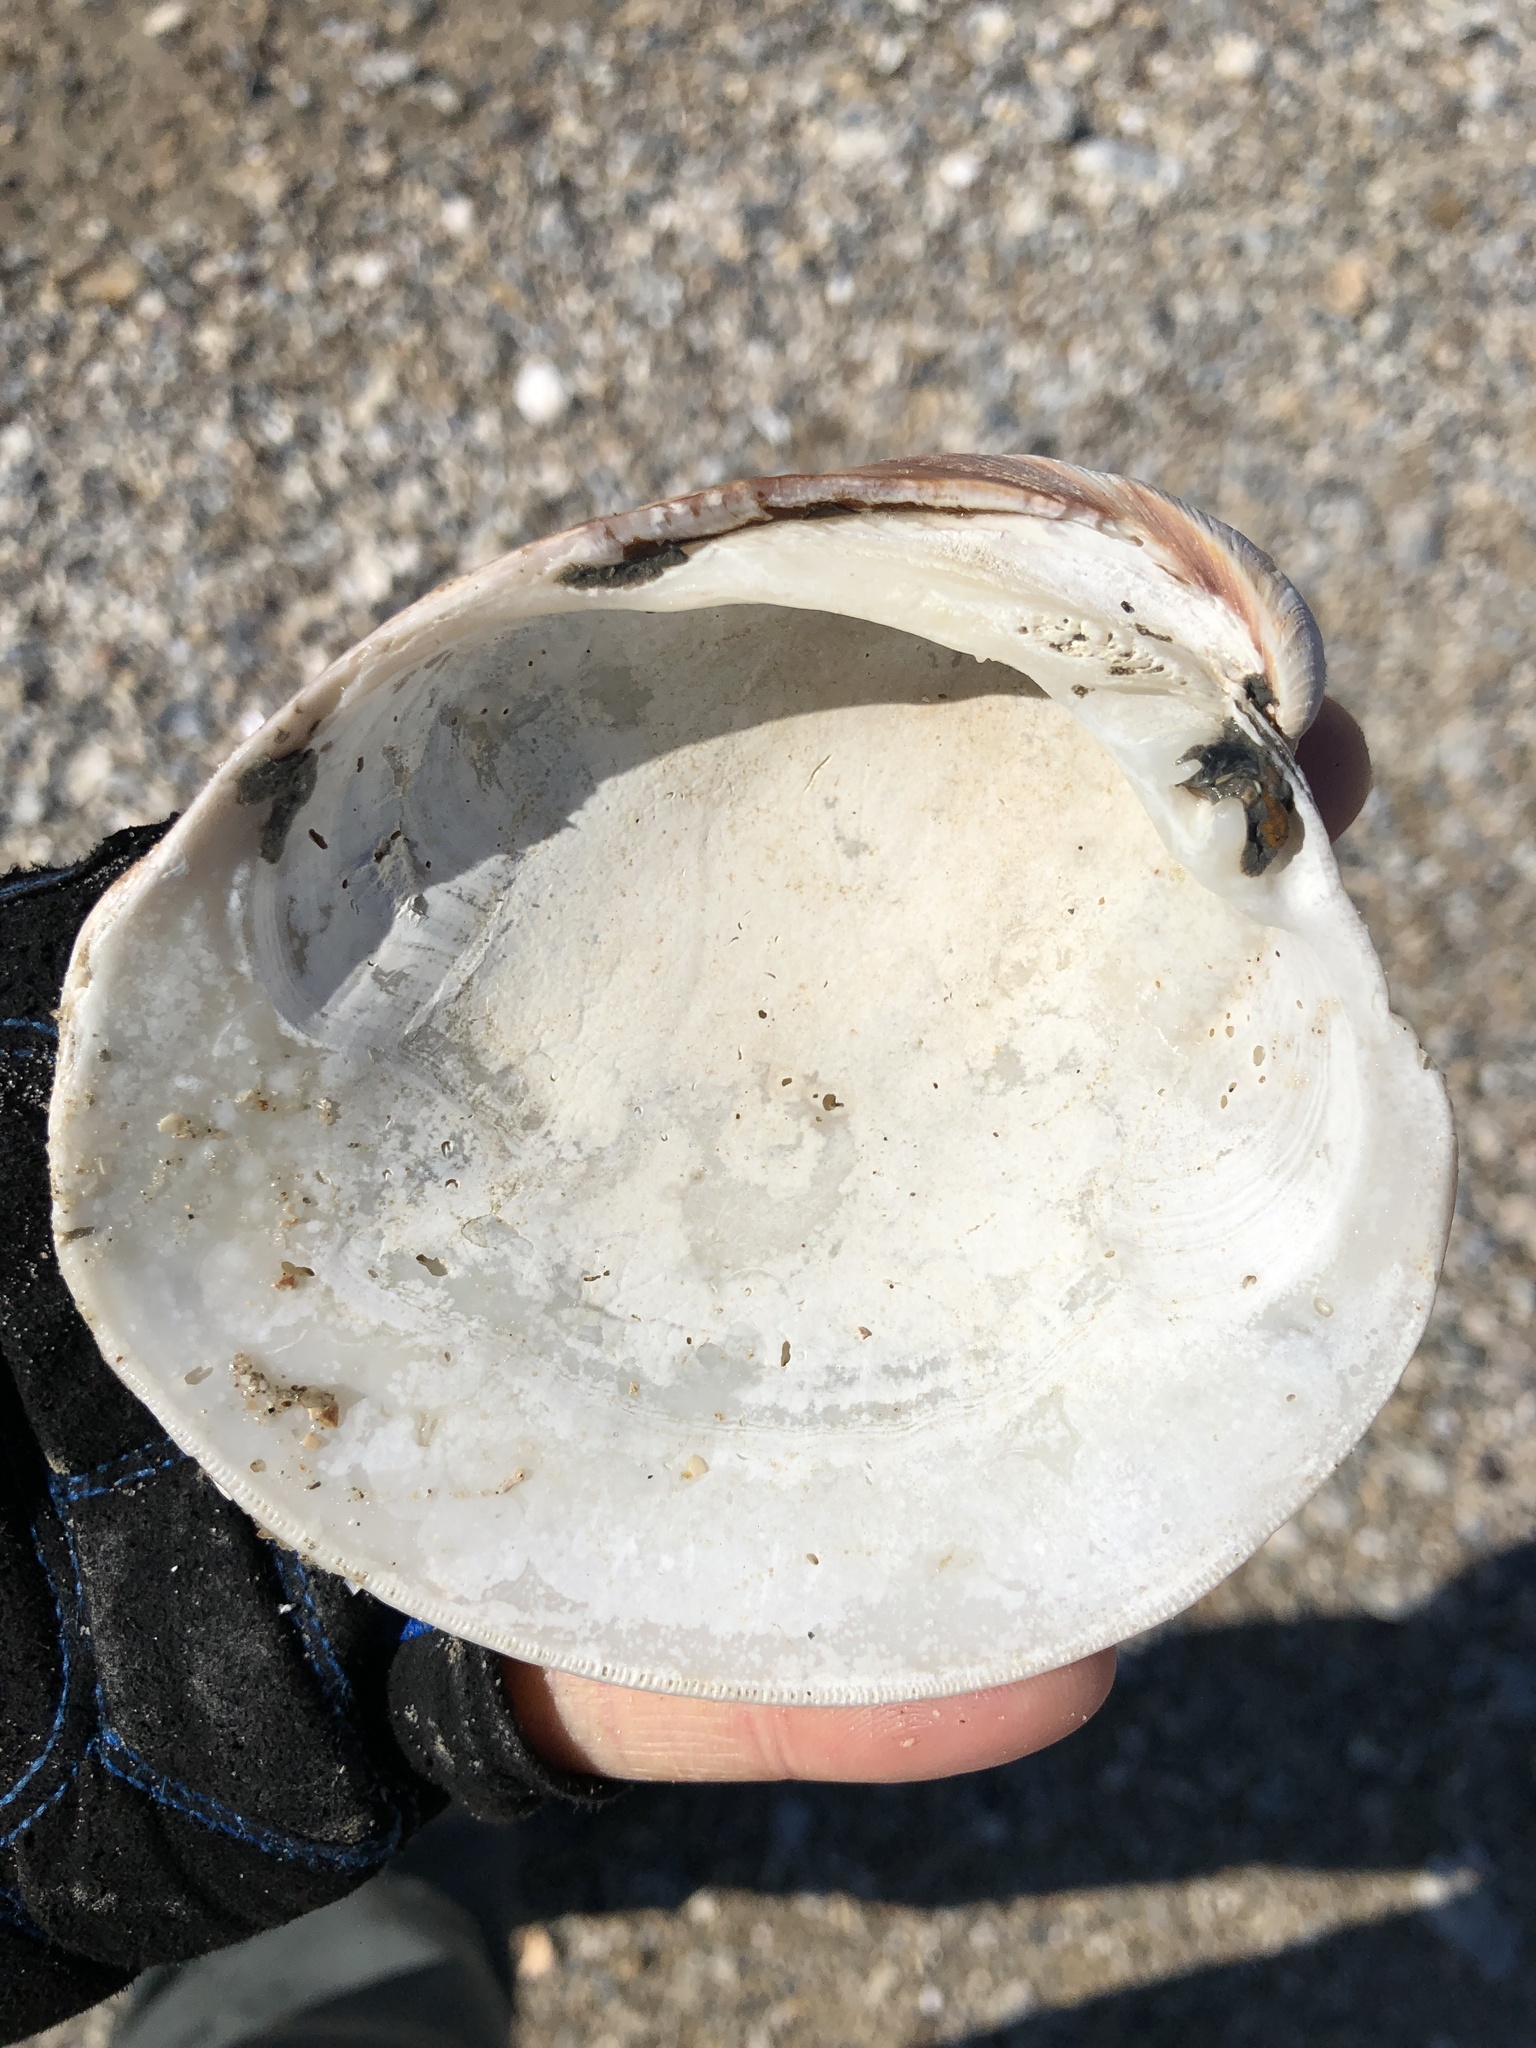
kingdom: Animalia
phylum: Mollusca
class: Bivalvia
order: Venerida
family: Veneridae
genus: Mercenaria
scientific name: Mercenaria campechiensis
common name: Südliche quahog-muschel
